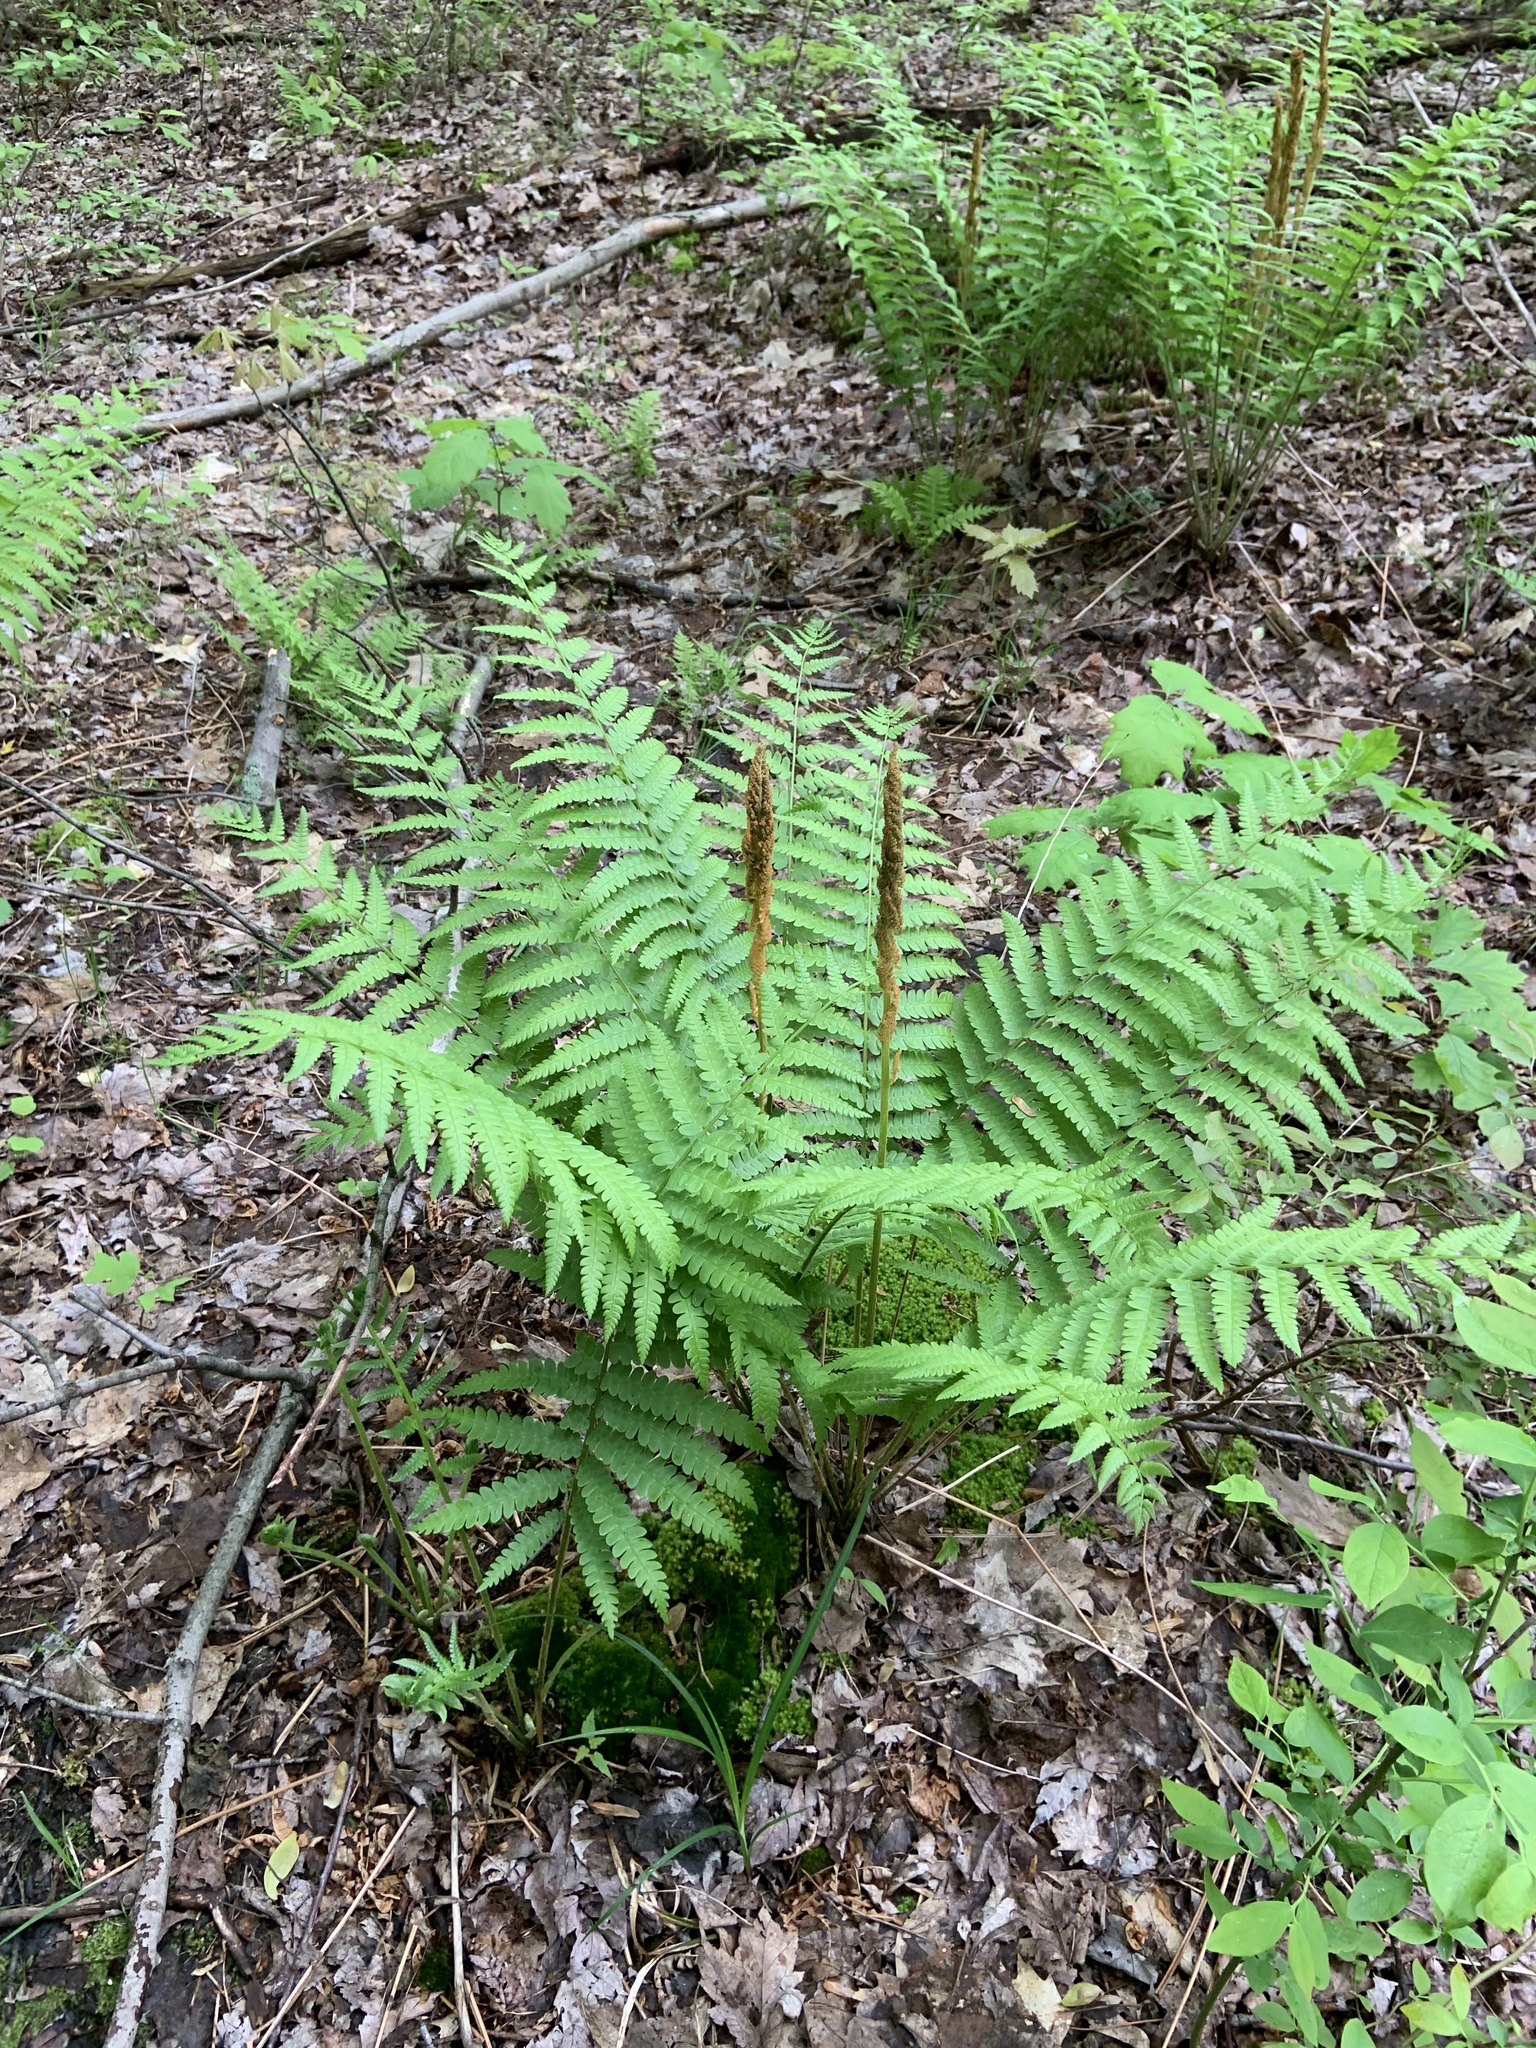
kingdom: Plantae
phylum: Tracheophyta
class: Polypodiopsida
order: Osmundales
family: Osmundaceae
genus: Osmundastrum
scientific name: Osmundastrum cinnamomeum
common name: Cinnamon fern
